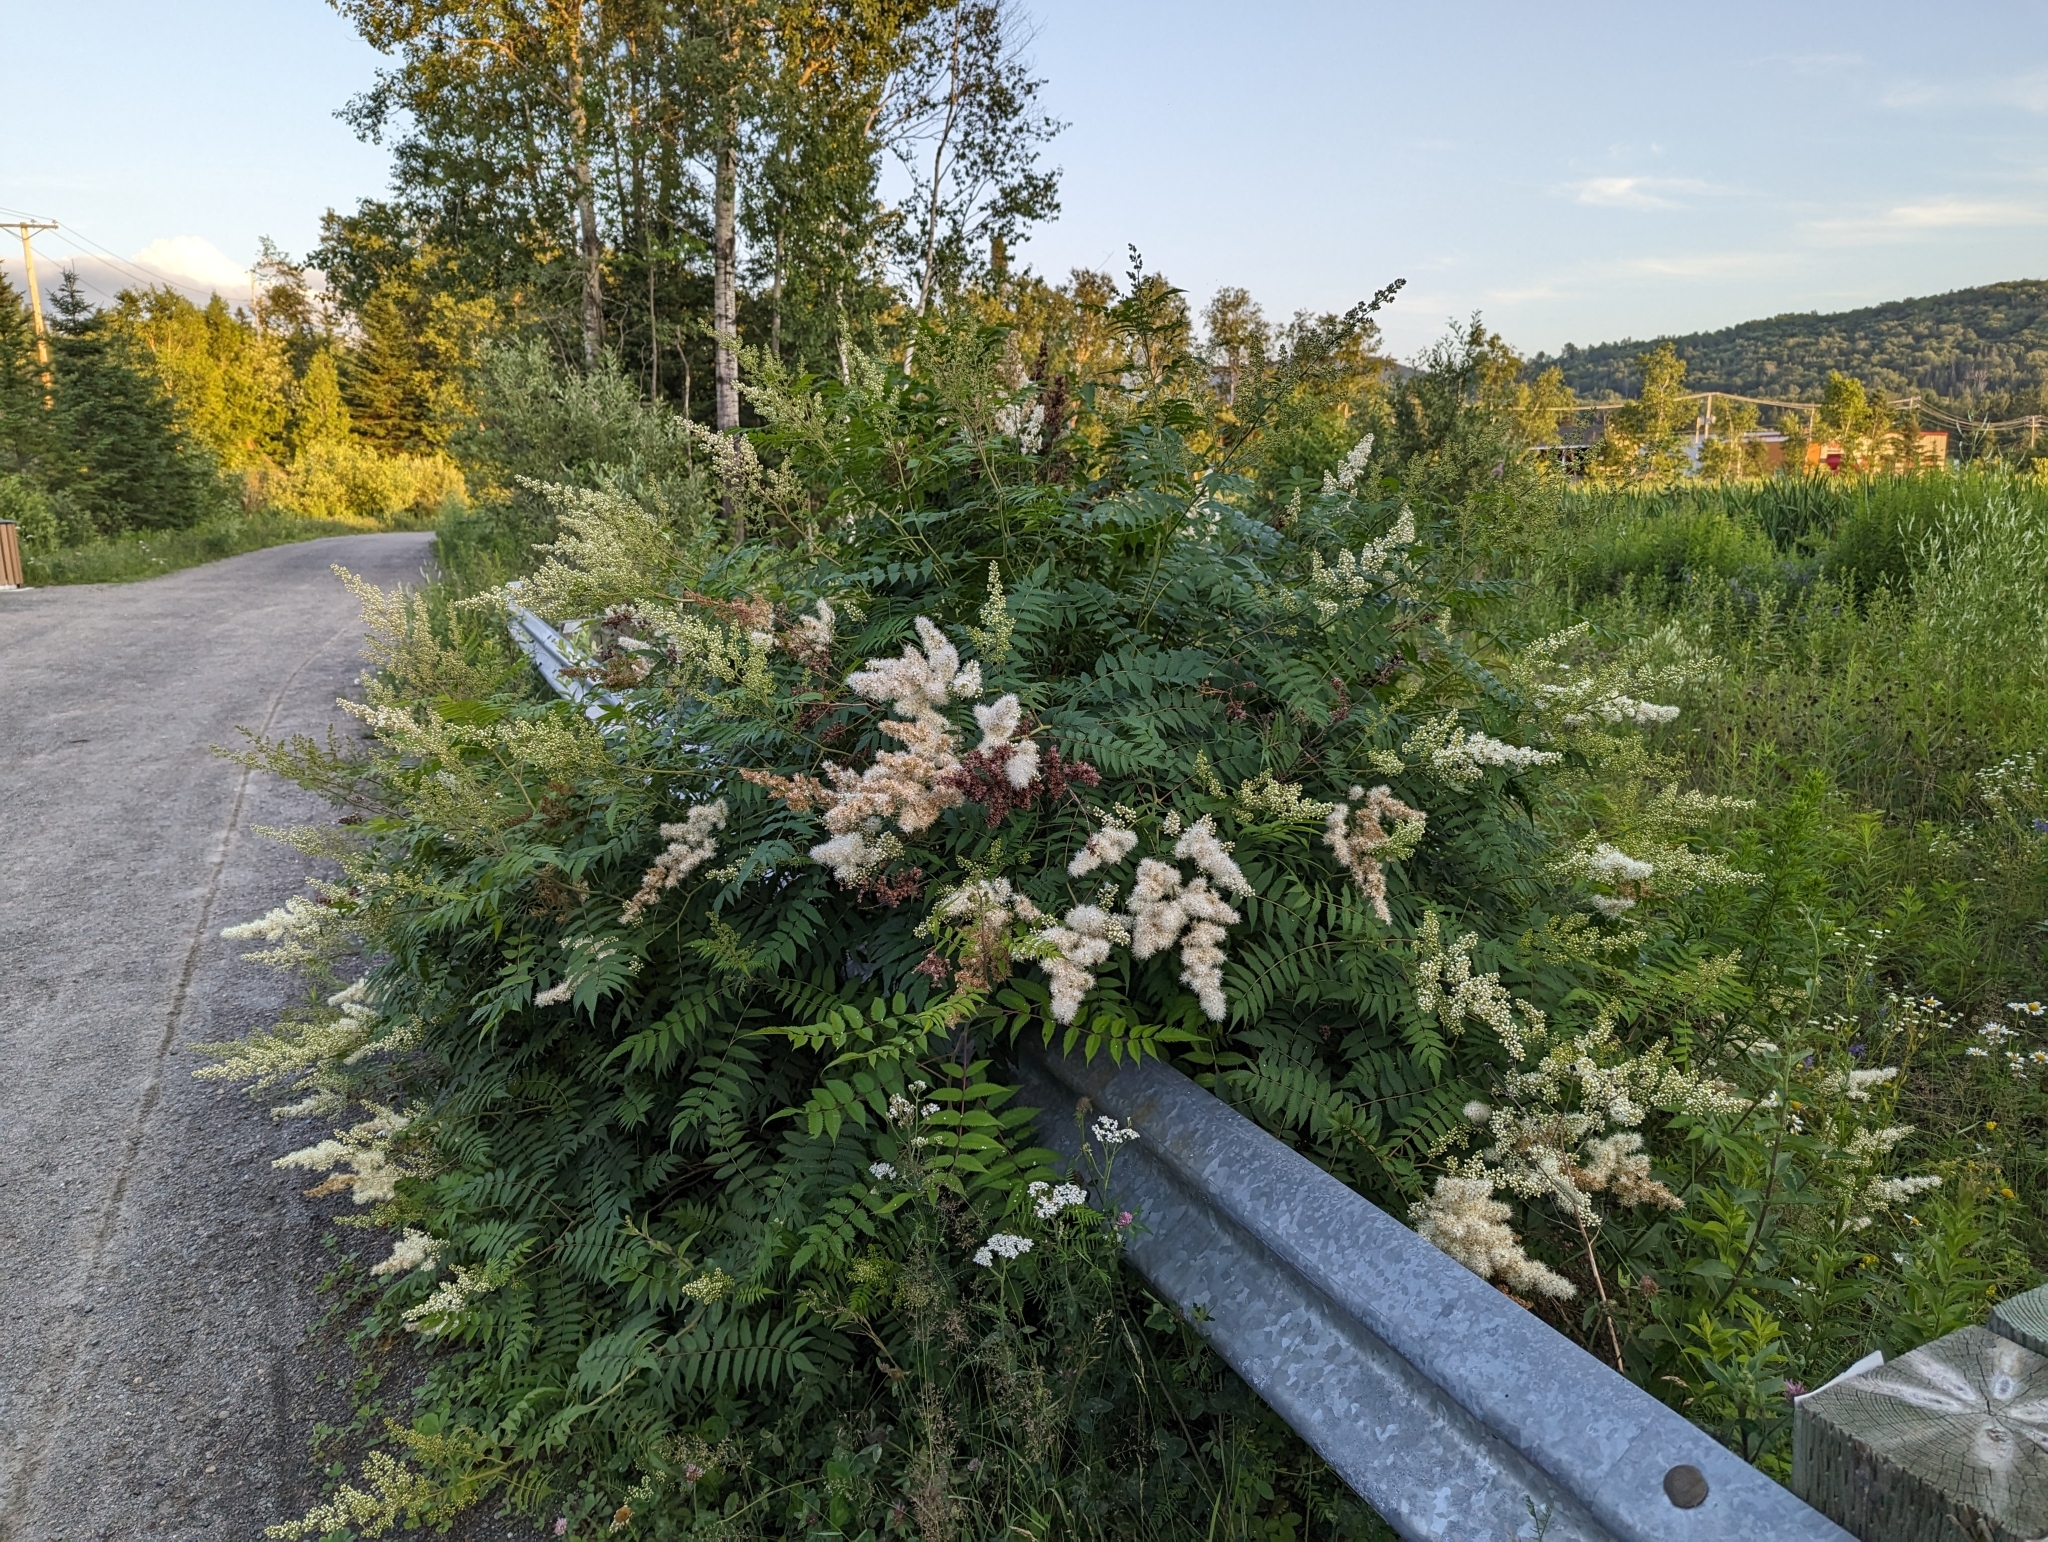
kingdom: Plantae
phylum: Tracheophyta
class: Magnoliopsida
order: Rosales
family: Rosaceae
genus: Sorbaria
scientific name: Sorbaria sorbifolia
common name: False spiraea
